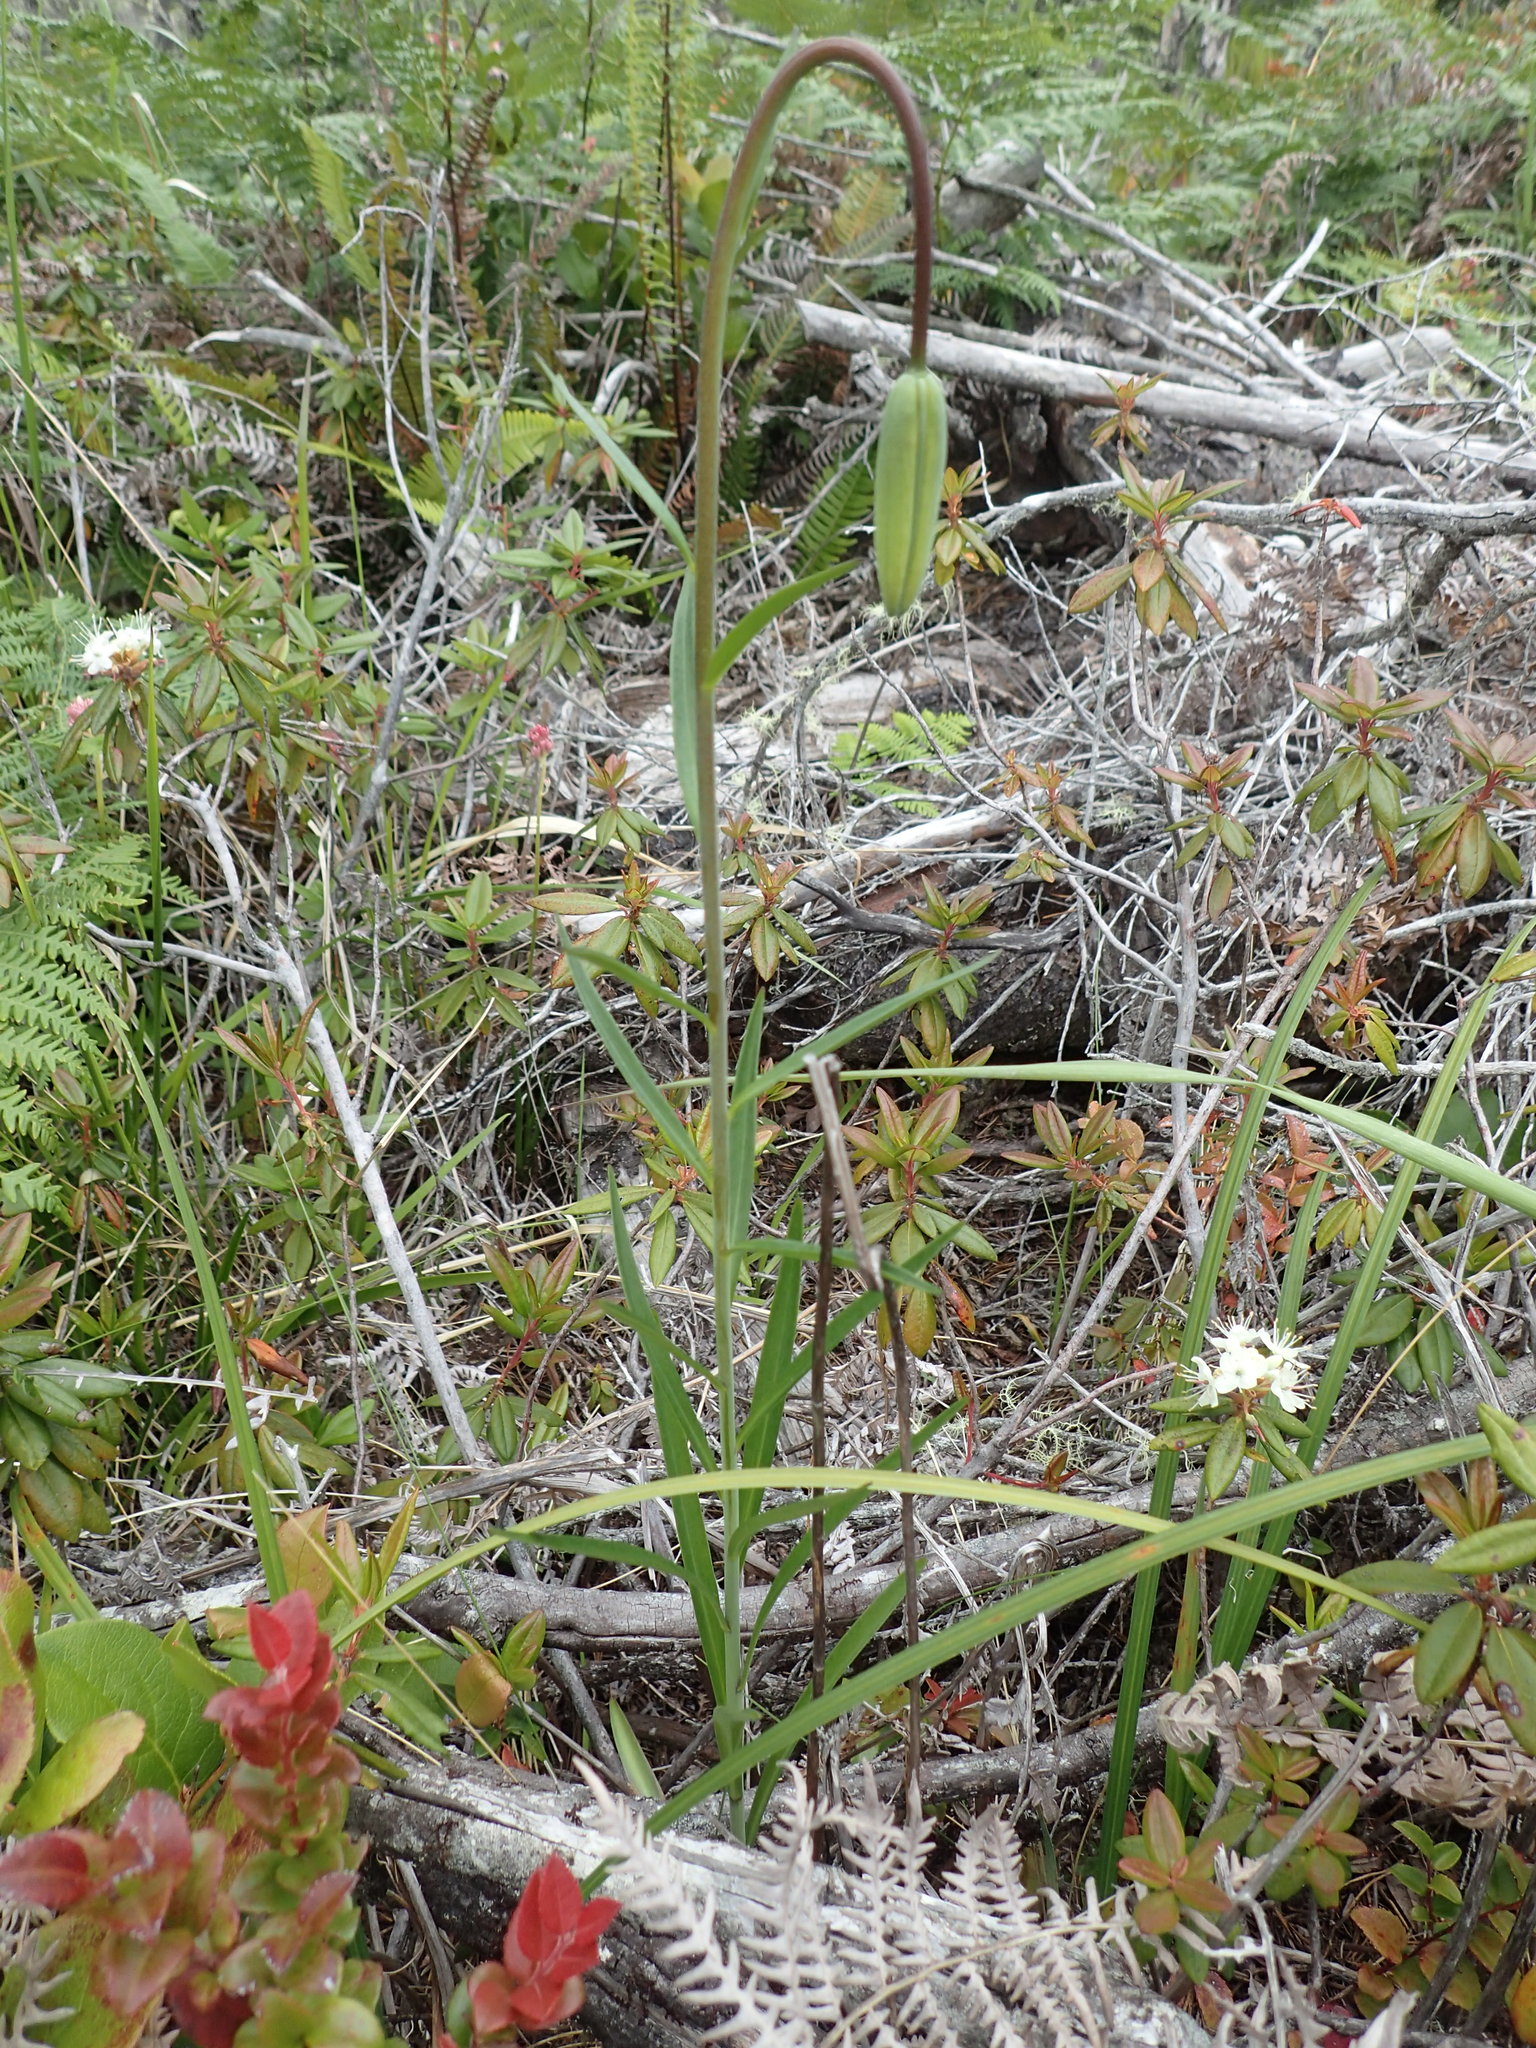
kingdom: Plantae
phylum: Tracheophyta
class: Liliopsida
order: Liliales
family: Liliaceae
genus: Lilium
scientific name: Lilium occidentale
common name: Eureka lily
